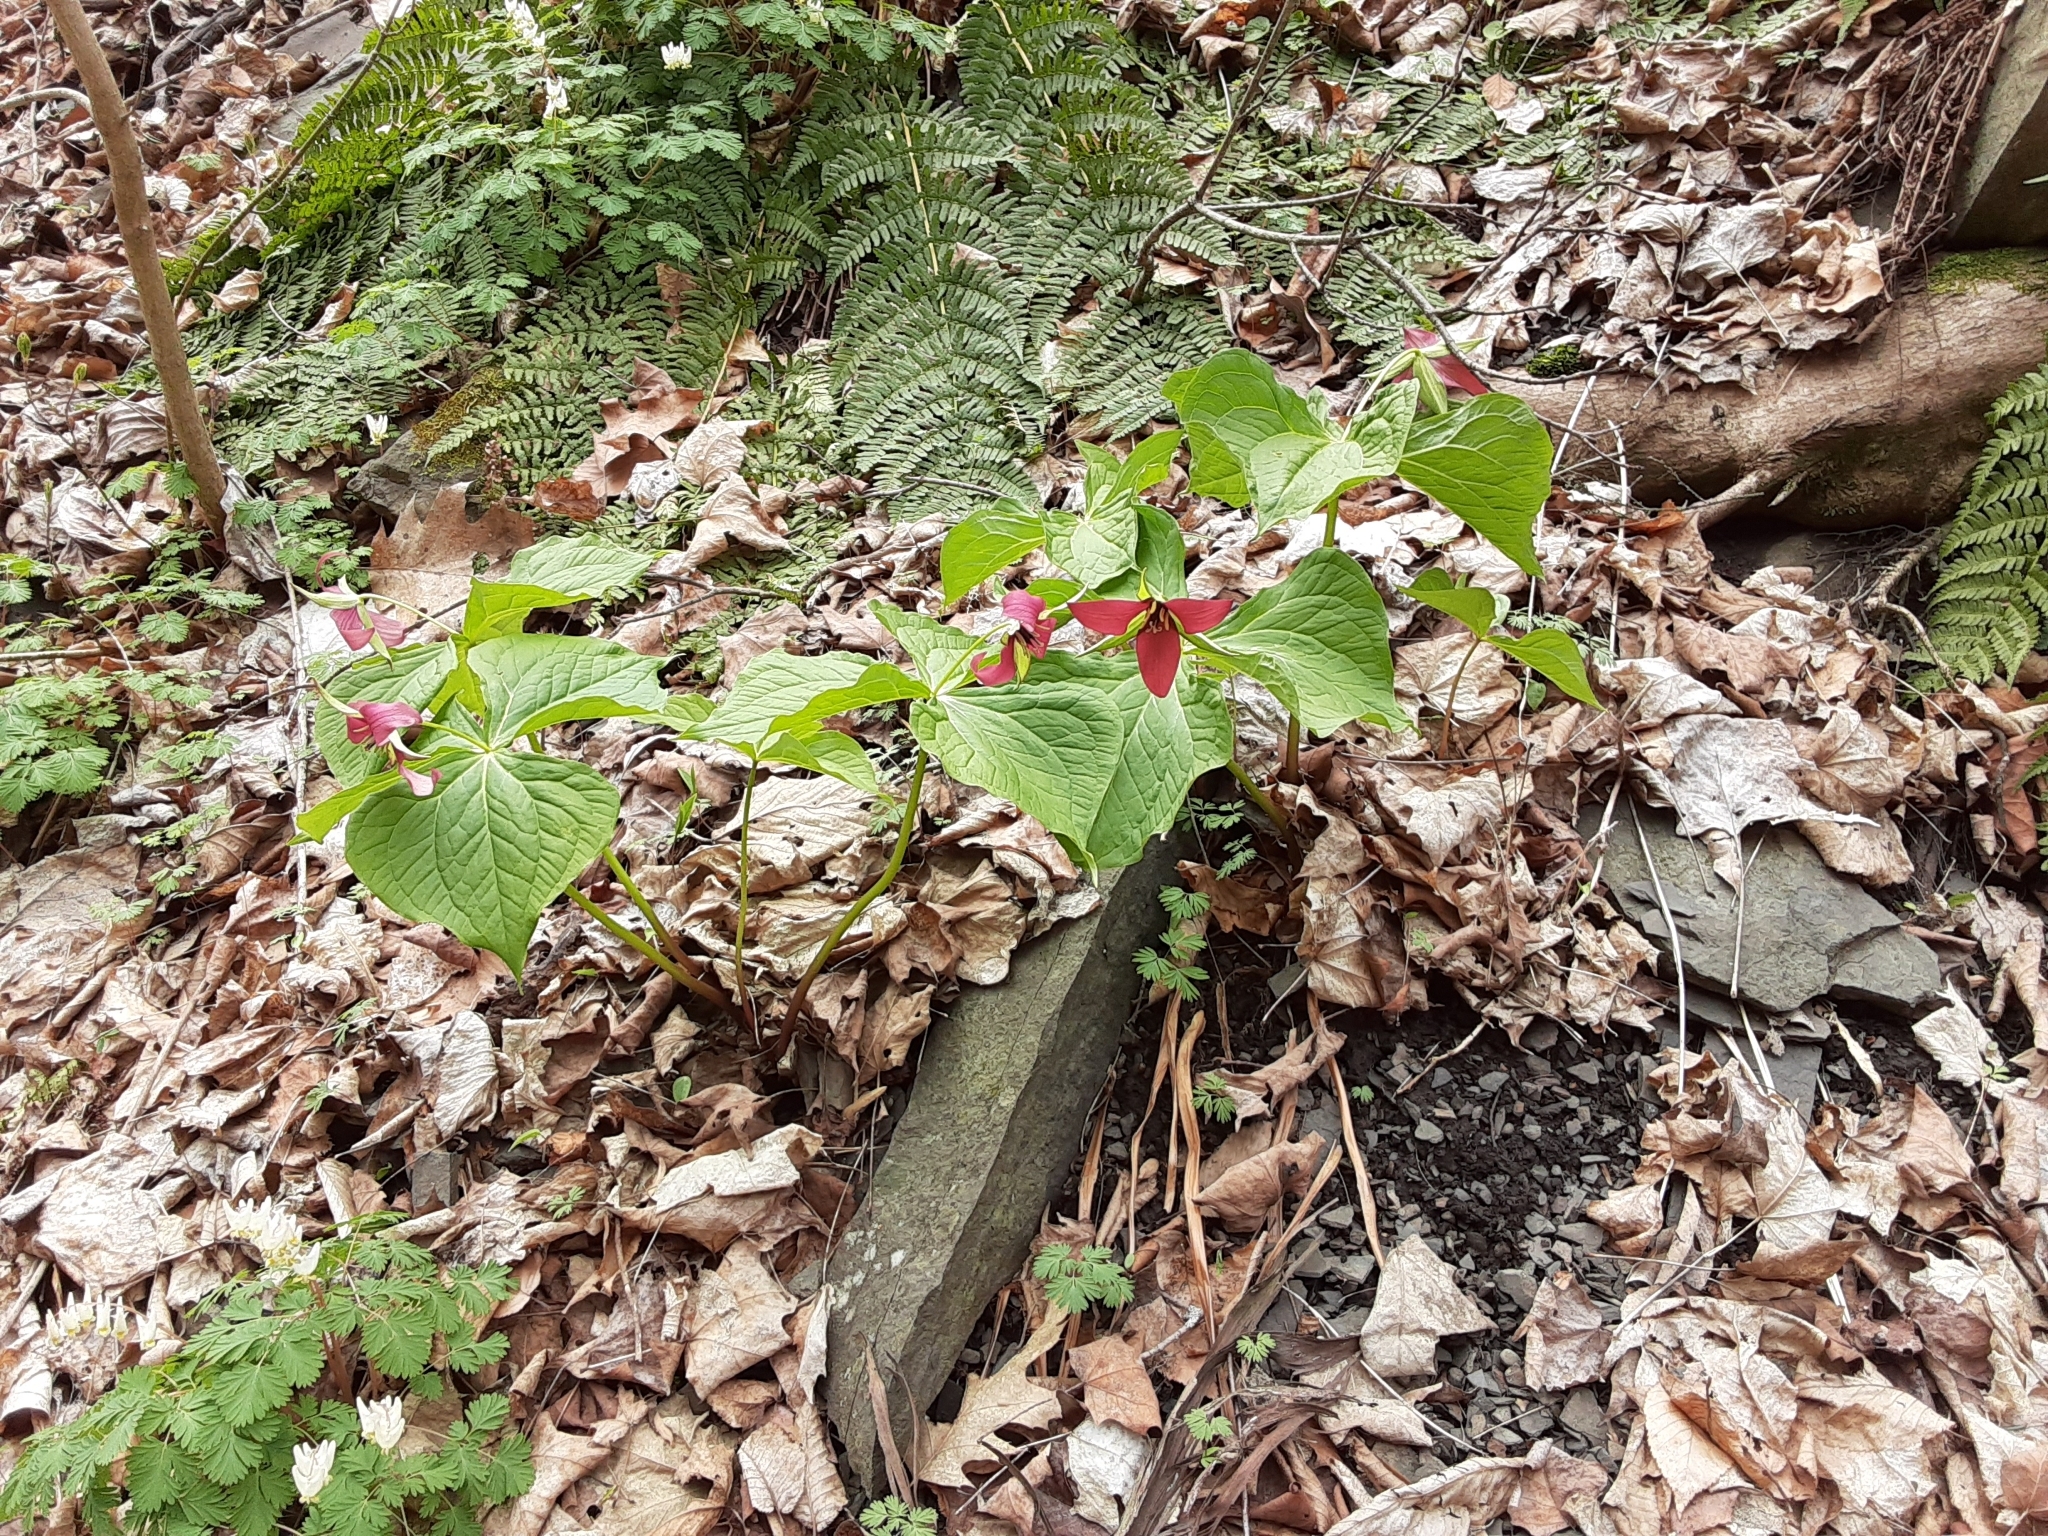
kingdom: Plantae
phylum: Tracheophyta
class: Liliopsida
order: Liliales
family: Melanthiaceae
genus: Trillium
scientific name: Trillium erectum
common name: Purple trillium
